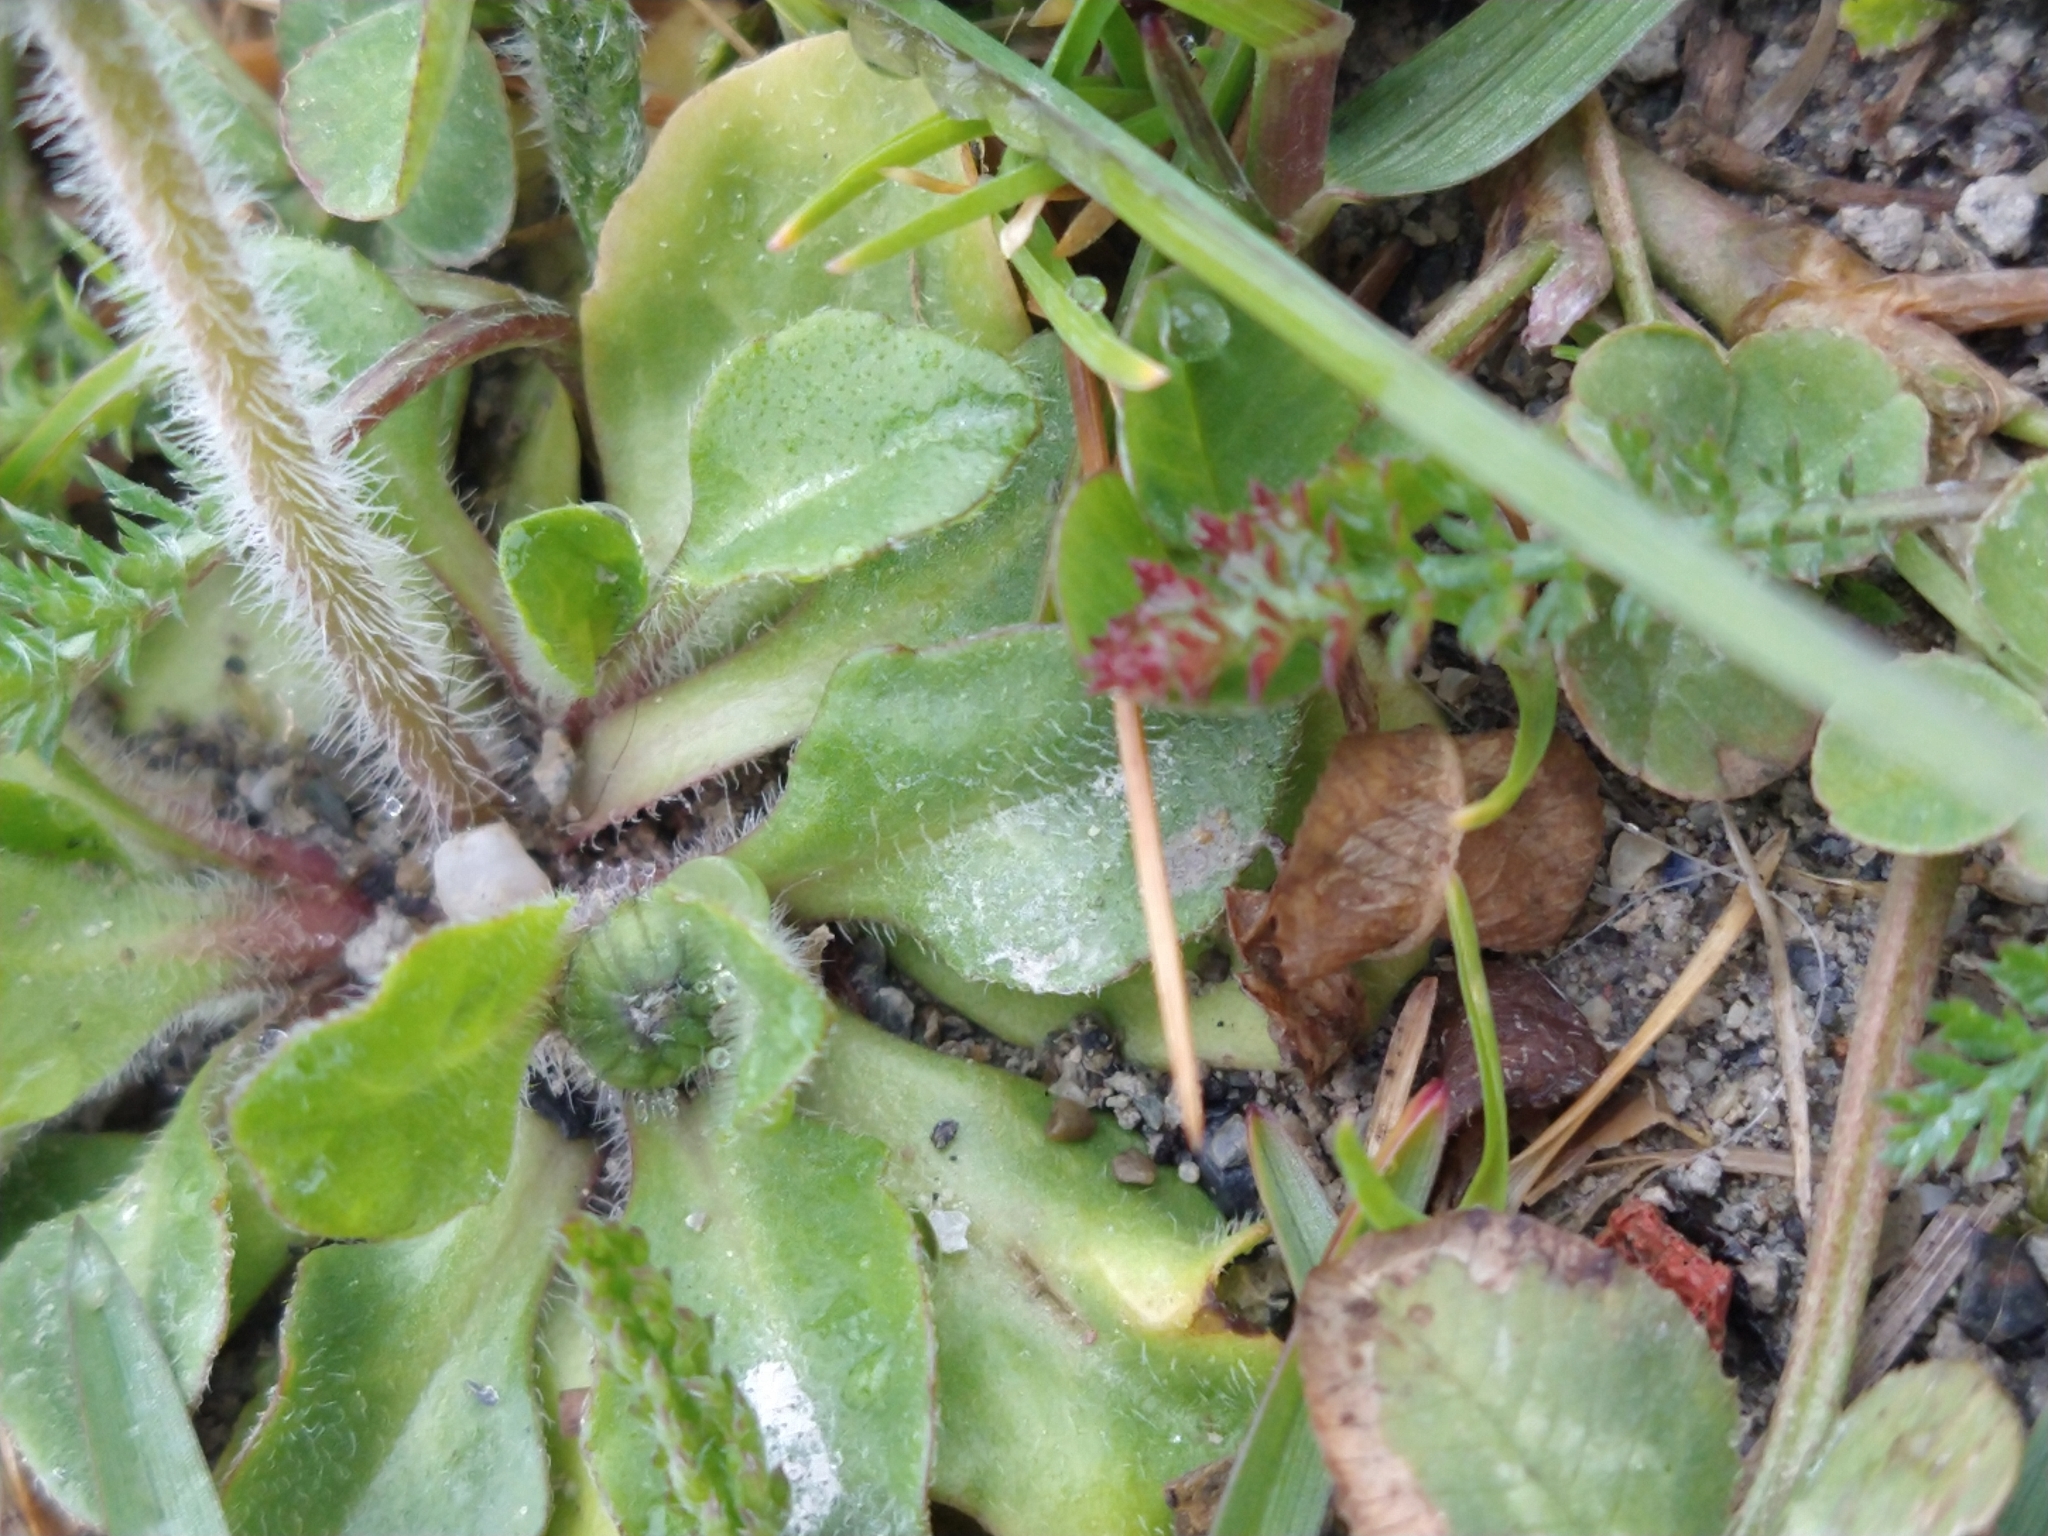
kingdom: Plantae
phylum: Tracheophyta
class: Magnoliopsida
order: Asterales
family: Asteraceae
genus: Bellis
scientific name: Bellis perennis
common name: Lawndaisy
